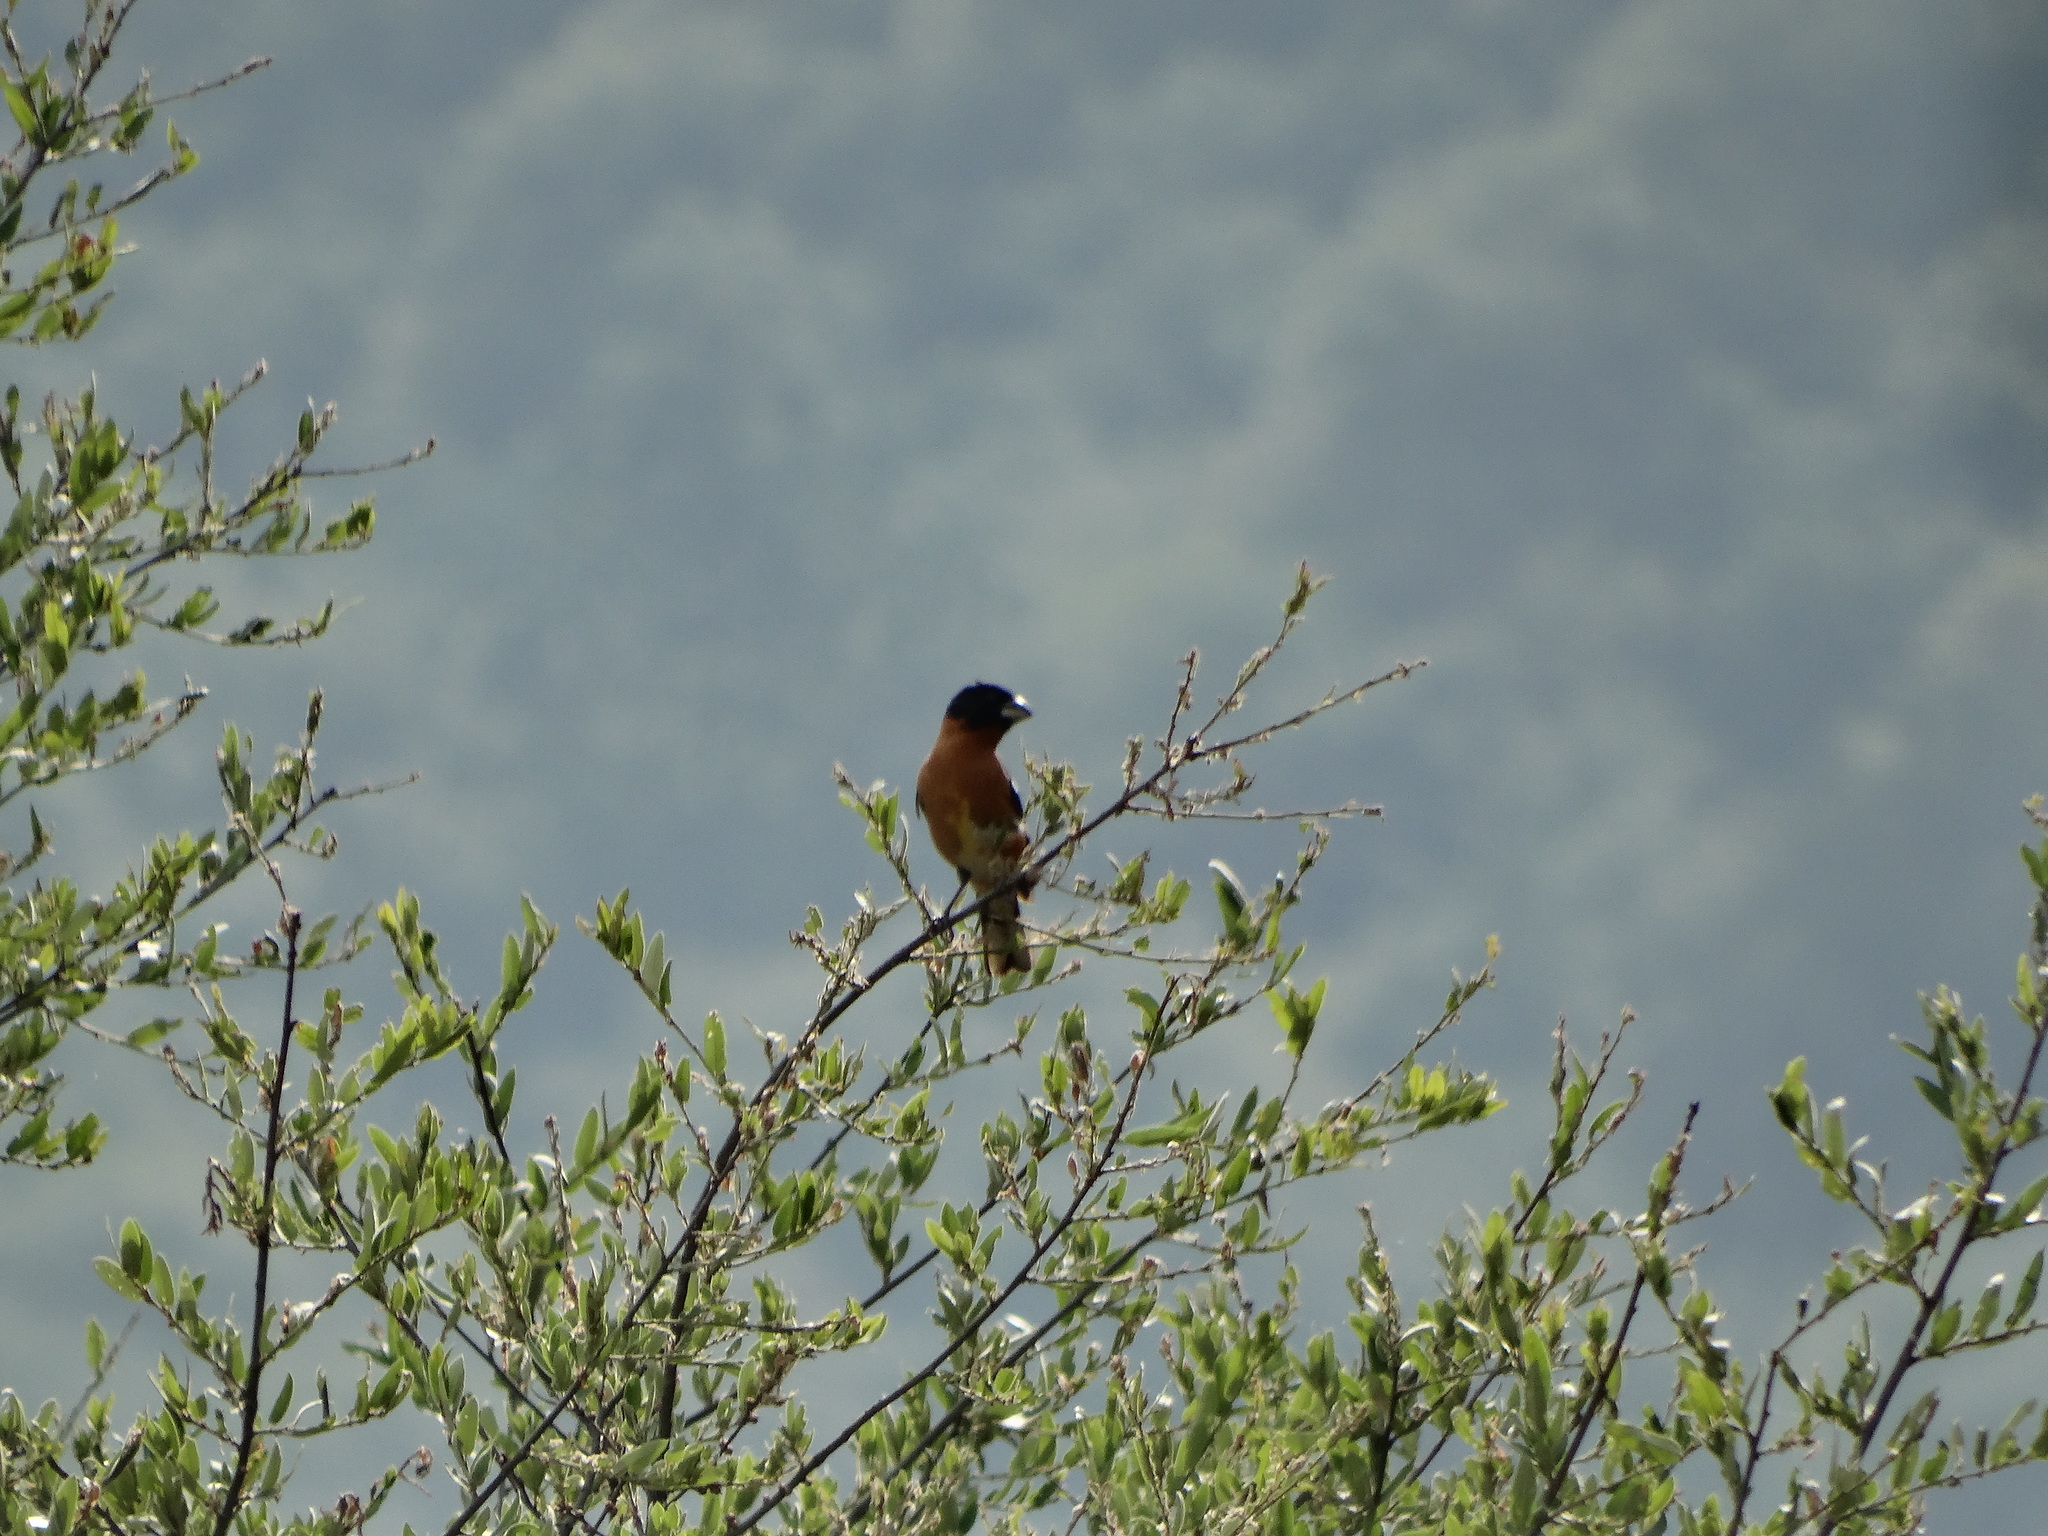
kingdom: Animalia
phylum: Chordata
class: Aves
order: Passeriformes
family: Cardinalidae
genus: Pheucticus
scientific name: Pheucticus melanocephalus
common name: Black-headed grosbeak
